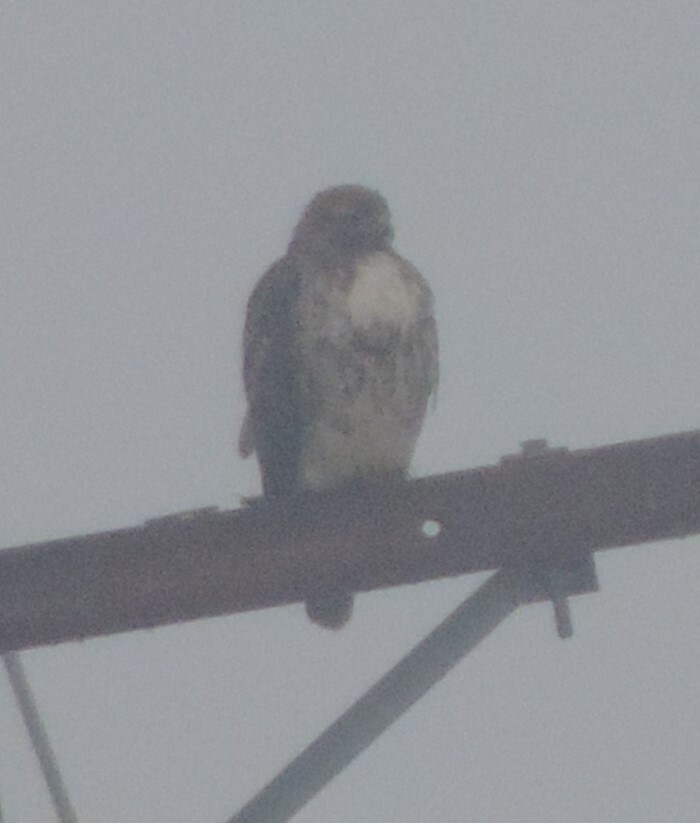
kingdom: Animalia
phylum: Chordata
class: Aves
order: Accipitriformes
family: Accipitridae
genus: Buteo
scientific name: Buteo jamaicensis
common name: Red-tailed hawk
